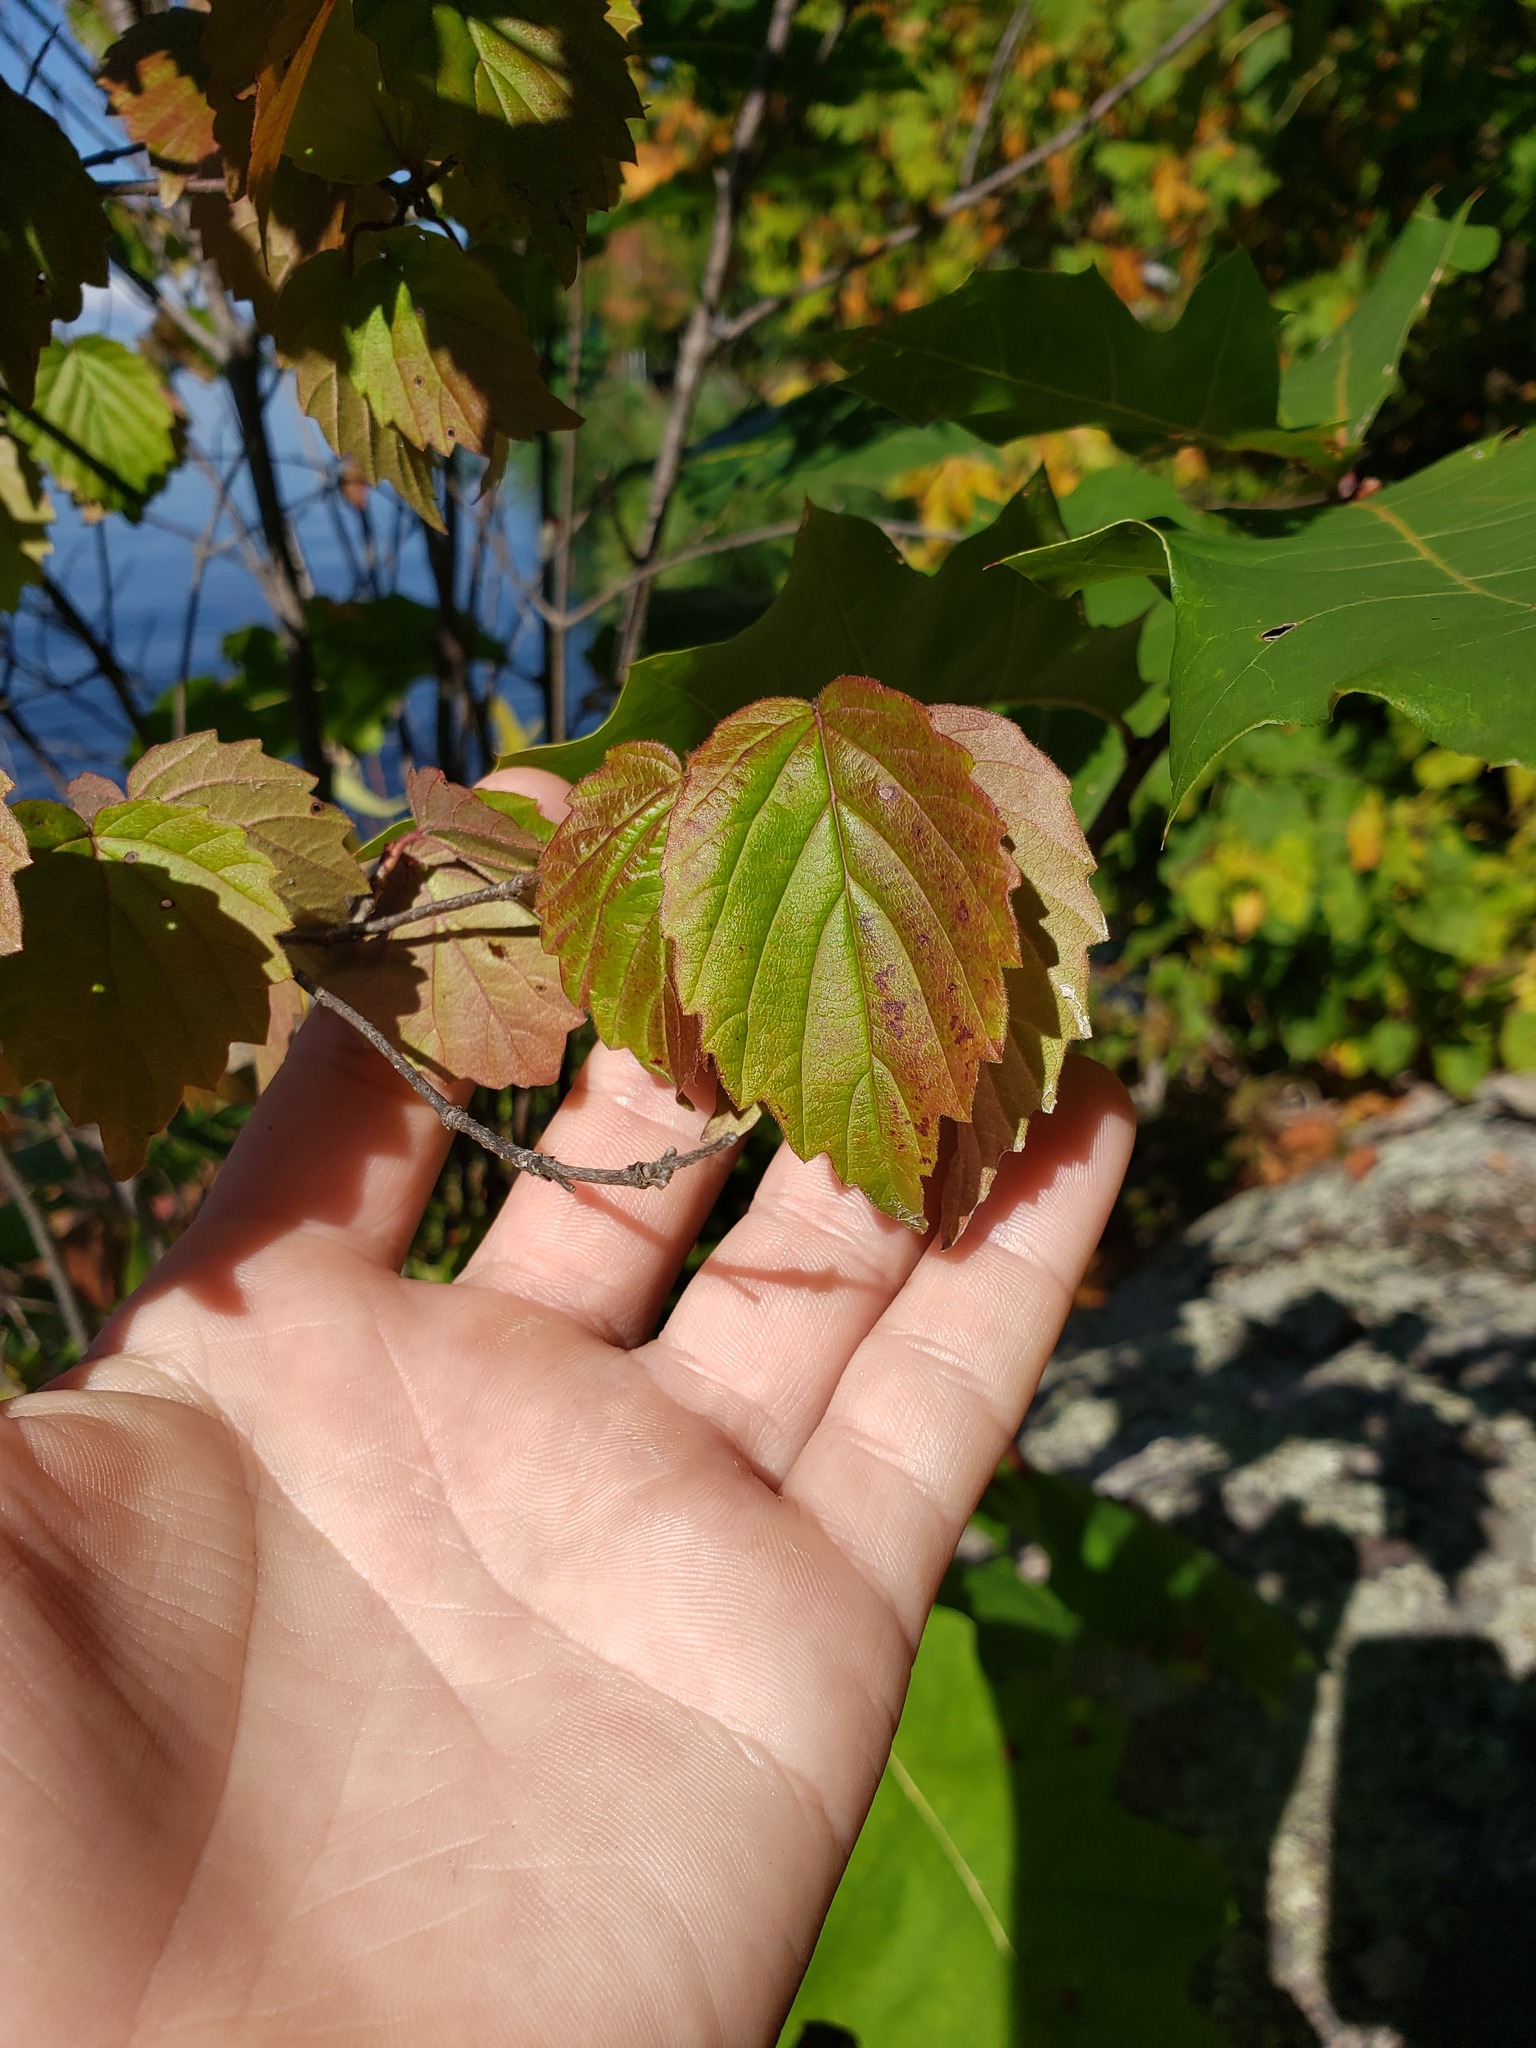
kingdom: Plantae
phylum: Tracheophyta
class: Magnoliopsida
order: Dipsacales
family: Viburnaceae
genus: Viburnum
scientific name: Viburnum rafinesqueanum
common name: Downy arrow-wood
